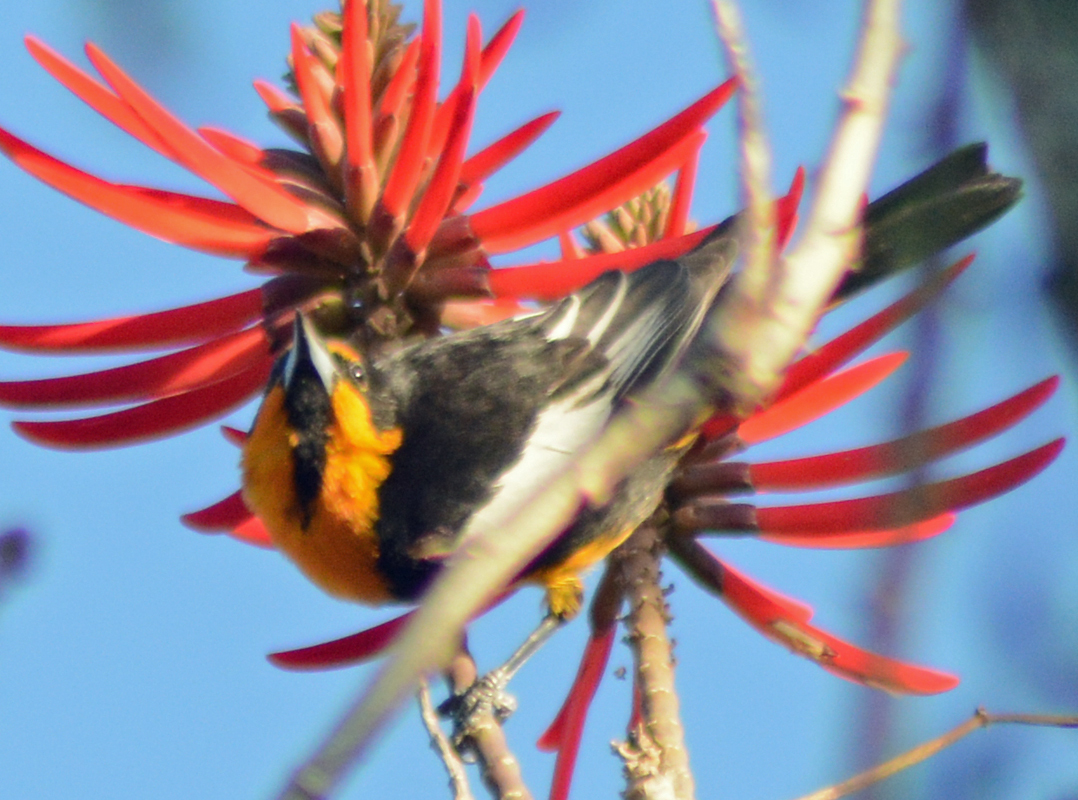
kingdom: Animalia
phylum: Chordata
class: Aves
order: Passeriformes
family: Icteridae
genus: Icterus
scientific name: Icterus abeillei
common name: Black-backed oriole
